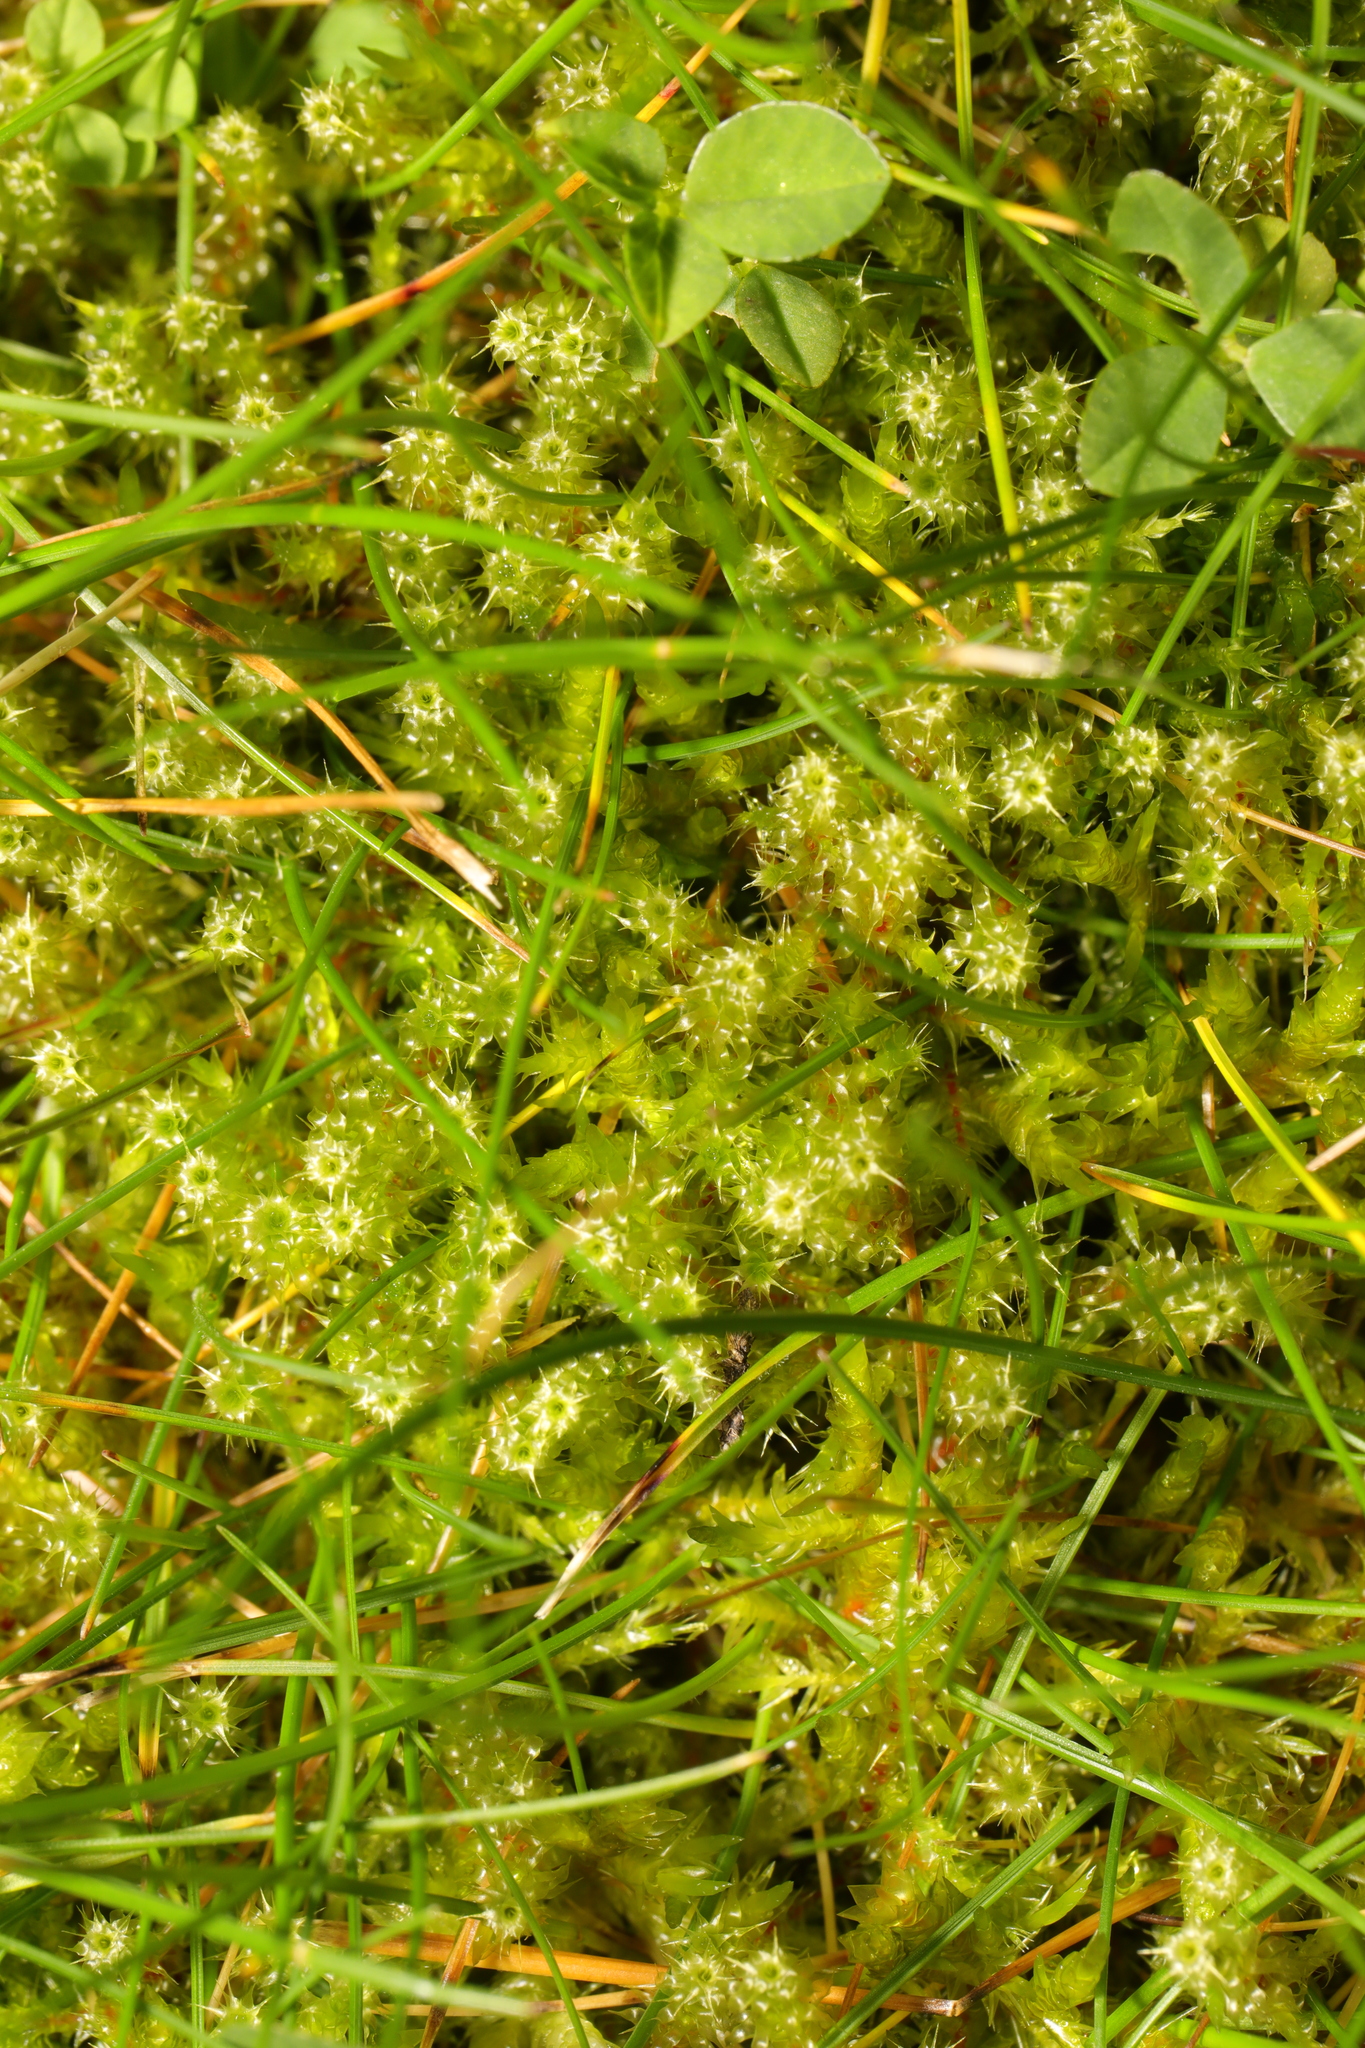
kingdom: Plantae
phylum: Bryophyta
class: Bryopsida
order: Hypnales
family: Hylocomiaceae
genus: Rhytidiadelphus
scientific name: Rhytidiadelphus squarrosus
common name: Springy turf-moss
